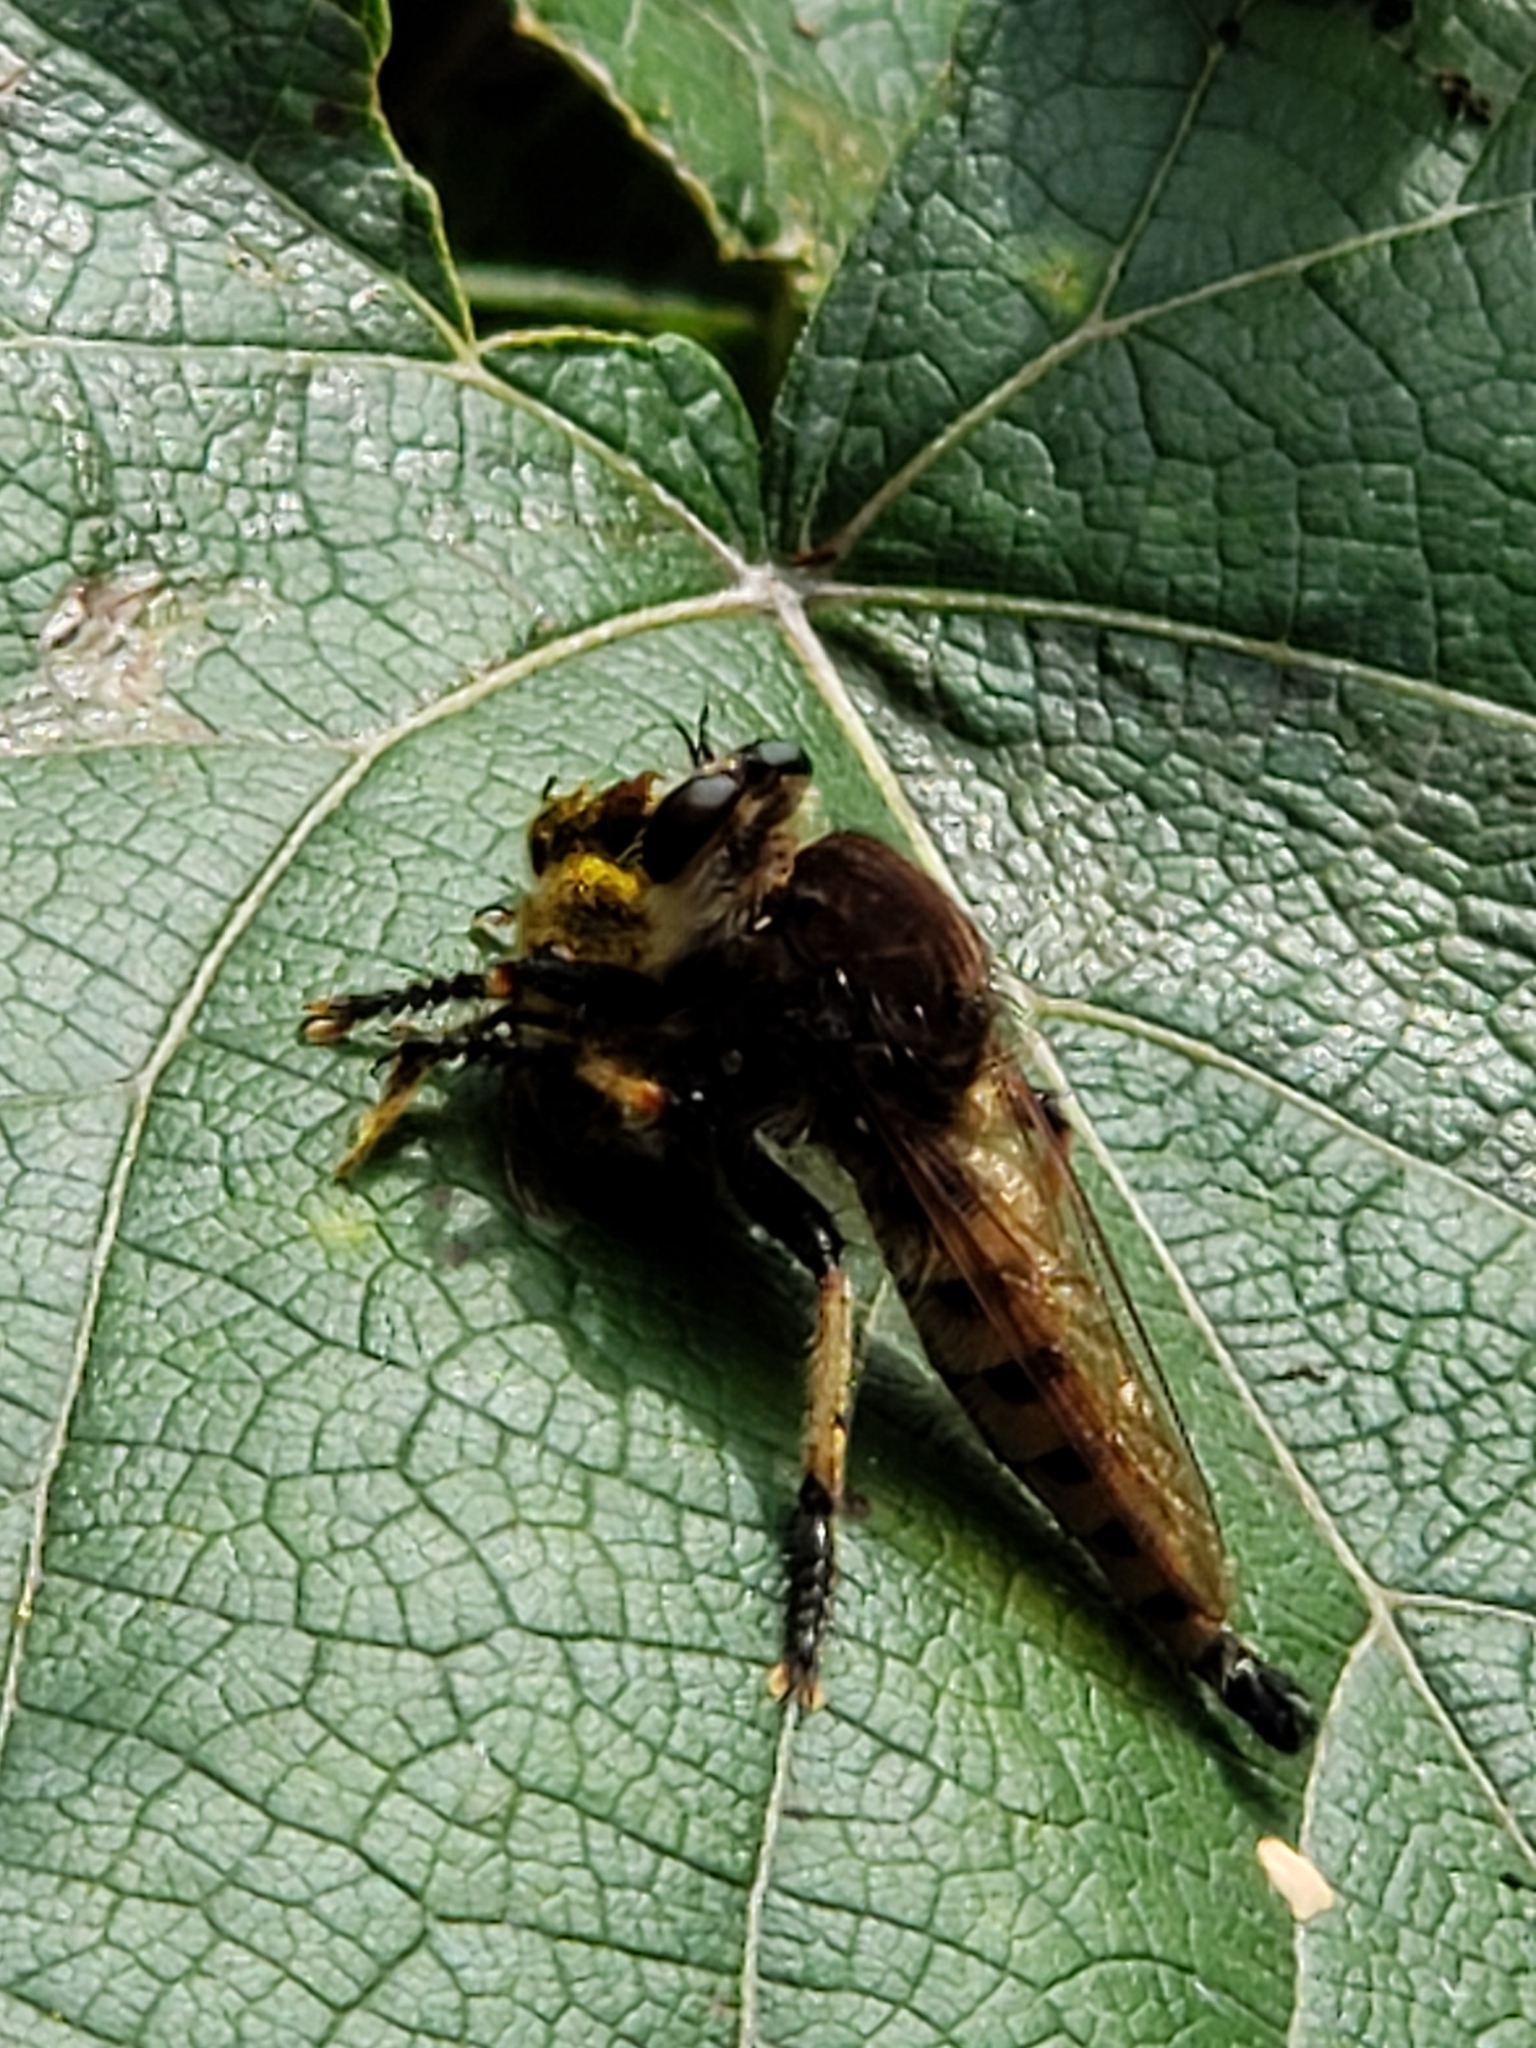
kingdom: Animalia
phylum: Arthropoda
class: Insecta
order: Diptera
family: Asilidae
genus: Promachus
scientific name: Promachus rufipes
